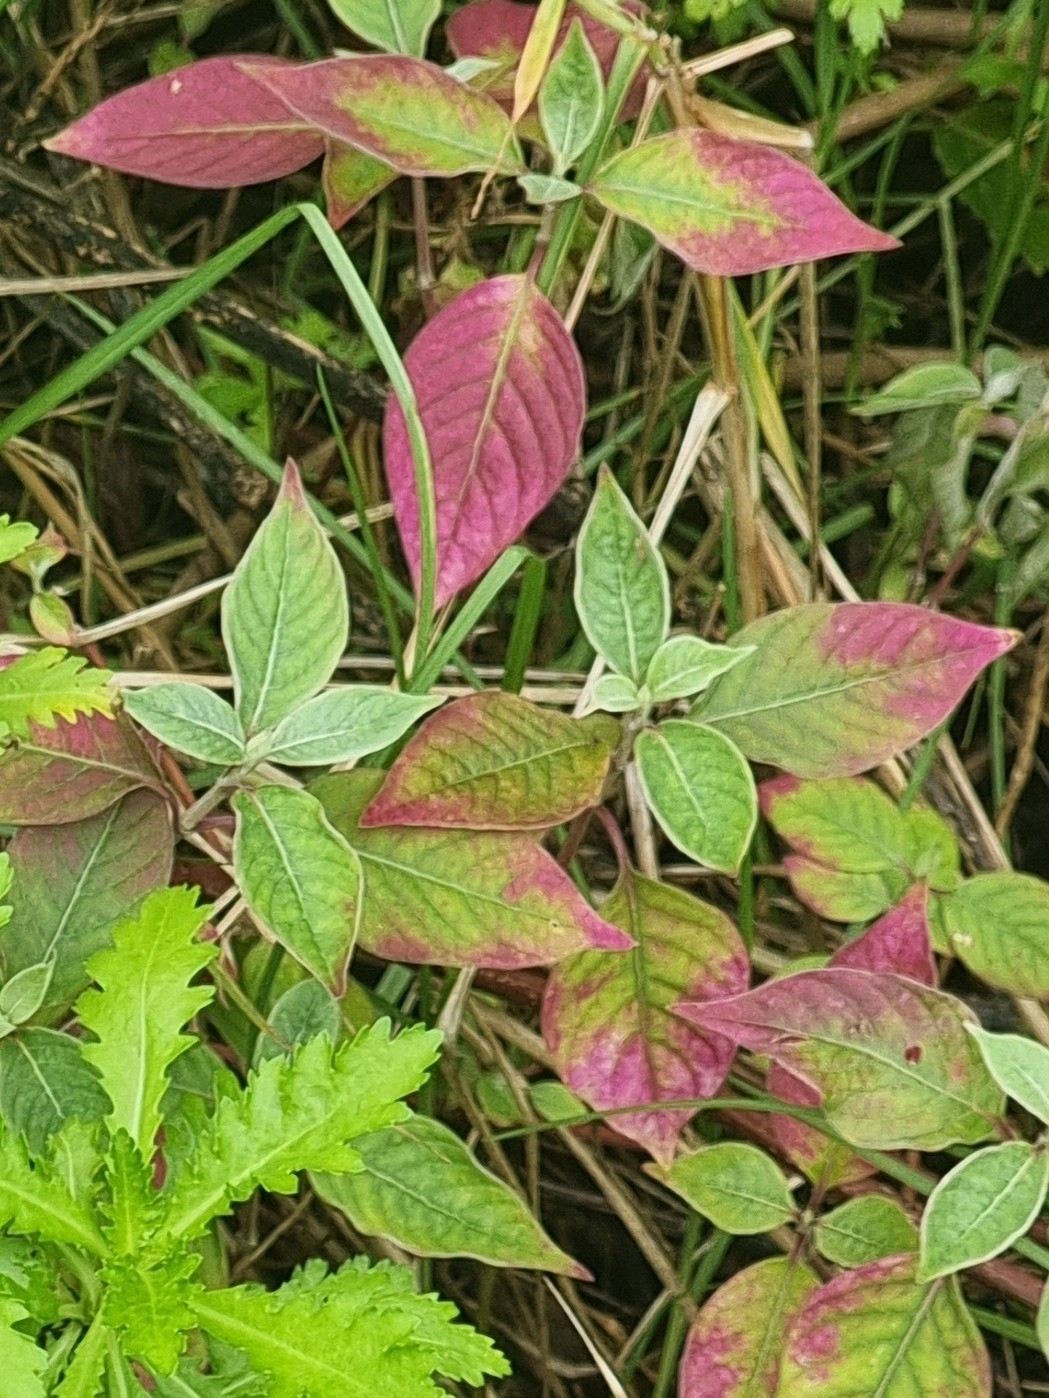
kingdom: Plantae
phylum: Tracheophyta
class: Magnoliopsida
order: Caryophyllales
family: Amaranthaceae
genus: Achyranthes
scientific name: Achyranthes aspera
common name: Devil's horsewhip
